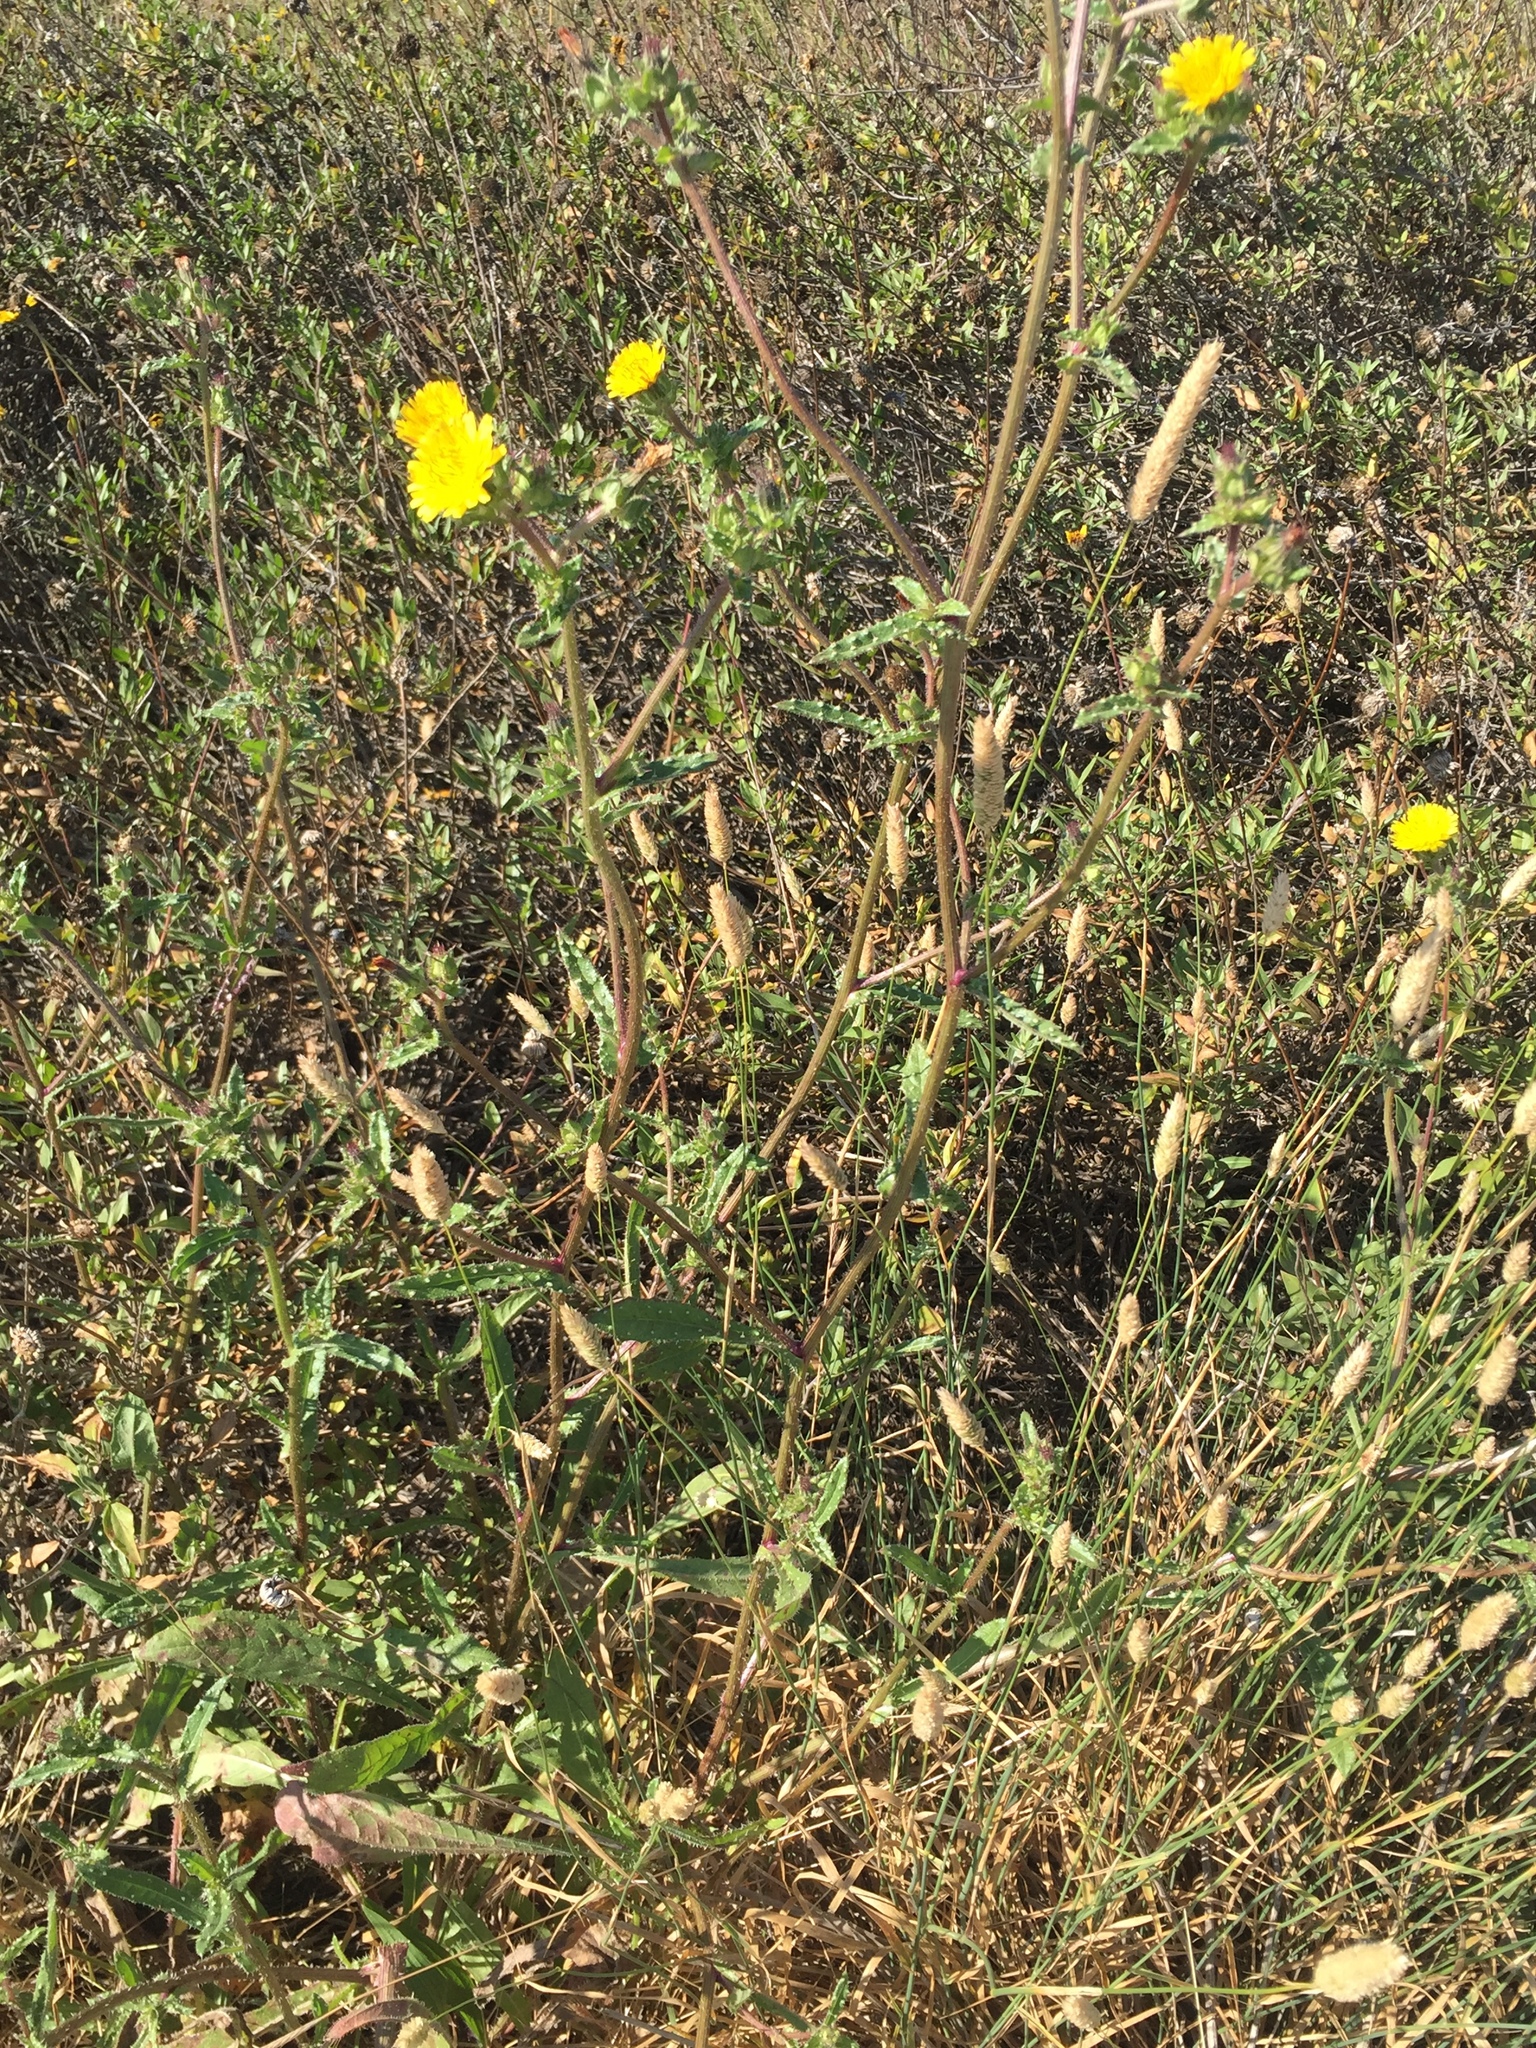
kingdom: Plantae
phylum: Tracheophyta
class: Magnoliopsida
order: Asterales
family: Asteraceae
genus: Helminthotheca
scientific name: Helminthotheca echioides
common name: Ox-tongue
